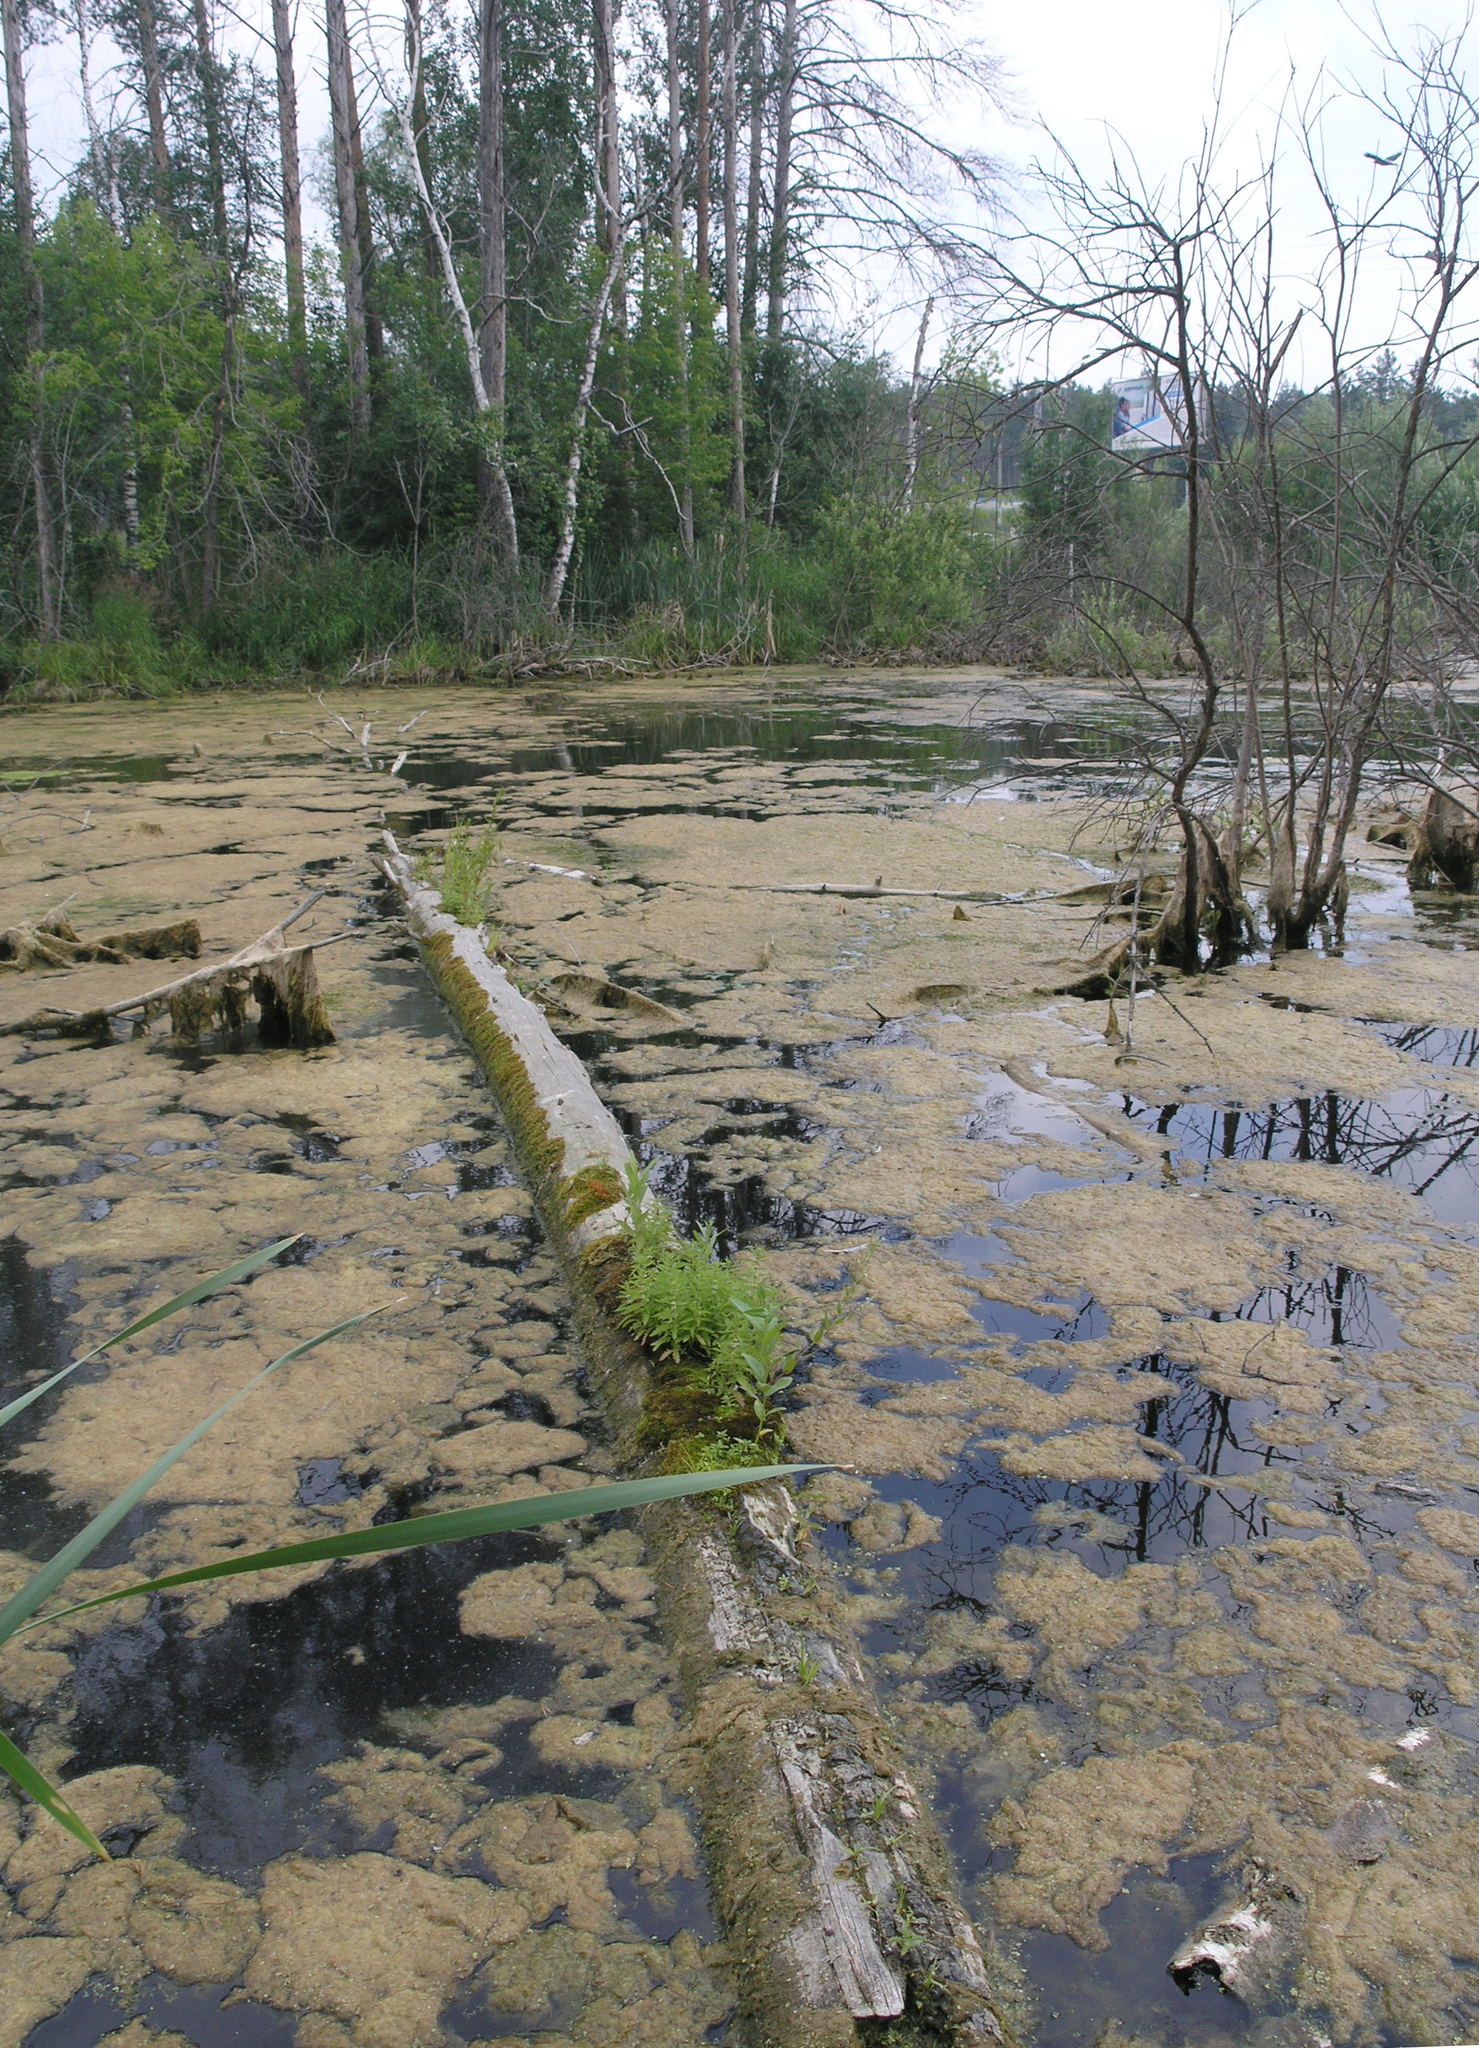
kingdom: Animalia
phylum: Arthropoda
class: Insecta
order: Odonata
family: Libellulidae
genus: Leucorrhinia
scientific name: Leucorrhinia dubia
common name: White-faced darter
